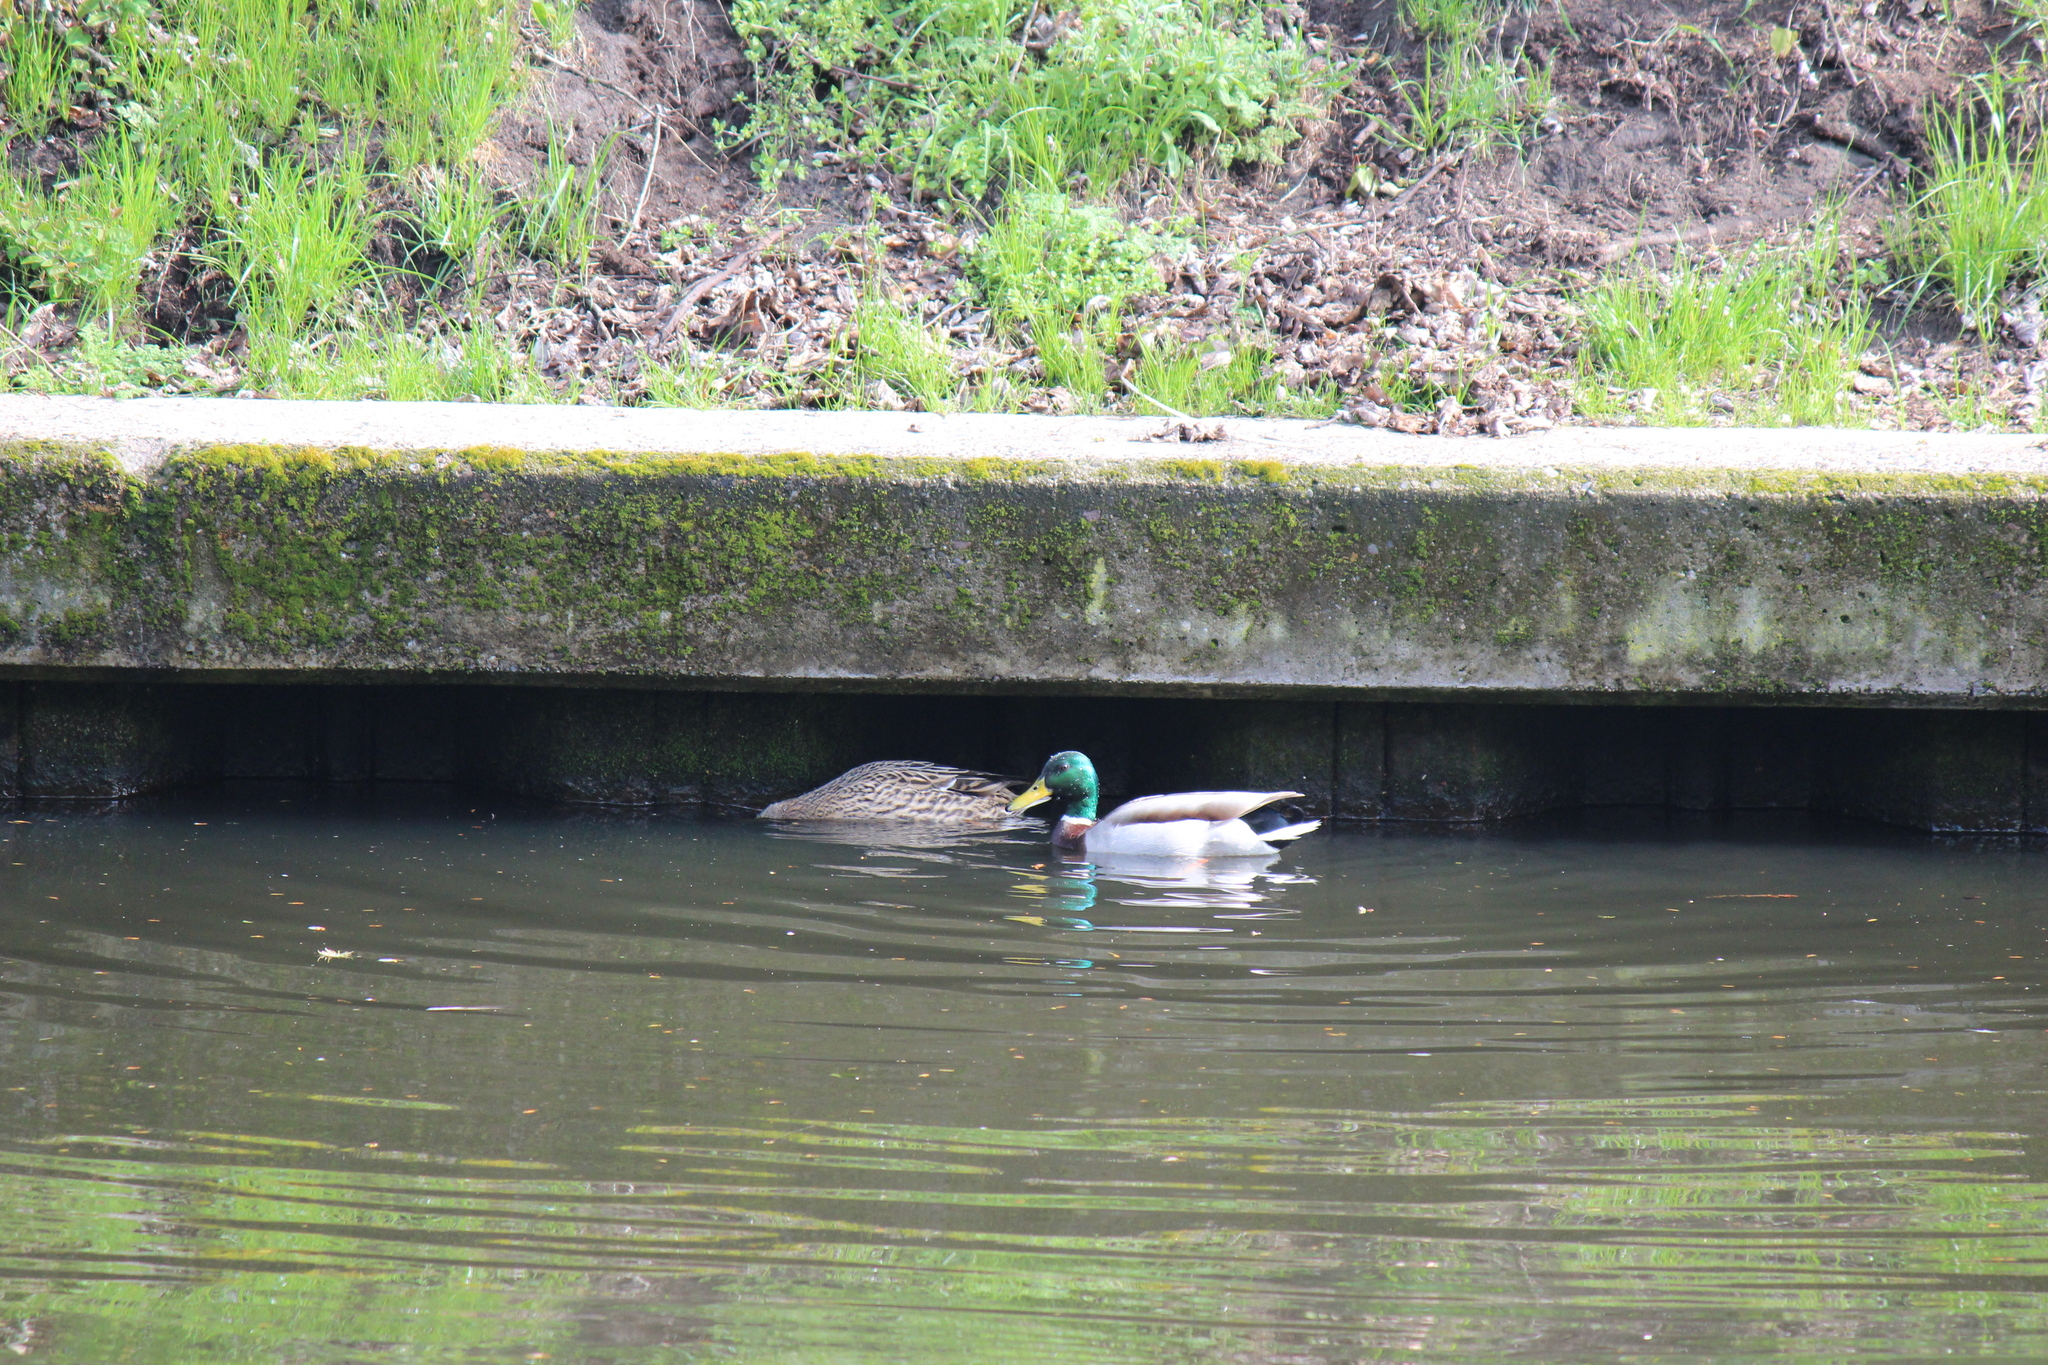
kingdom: Animalia
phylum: Chordata
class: Aves
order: Anseriformes
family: Anatidae
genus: Anas
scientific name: Anas platyrhynchos
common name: Mallard
